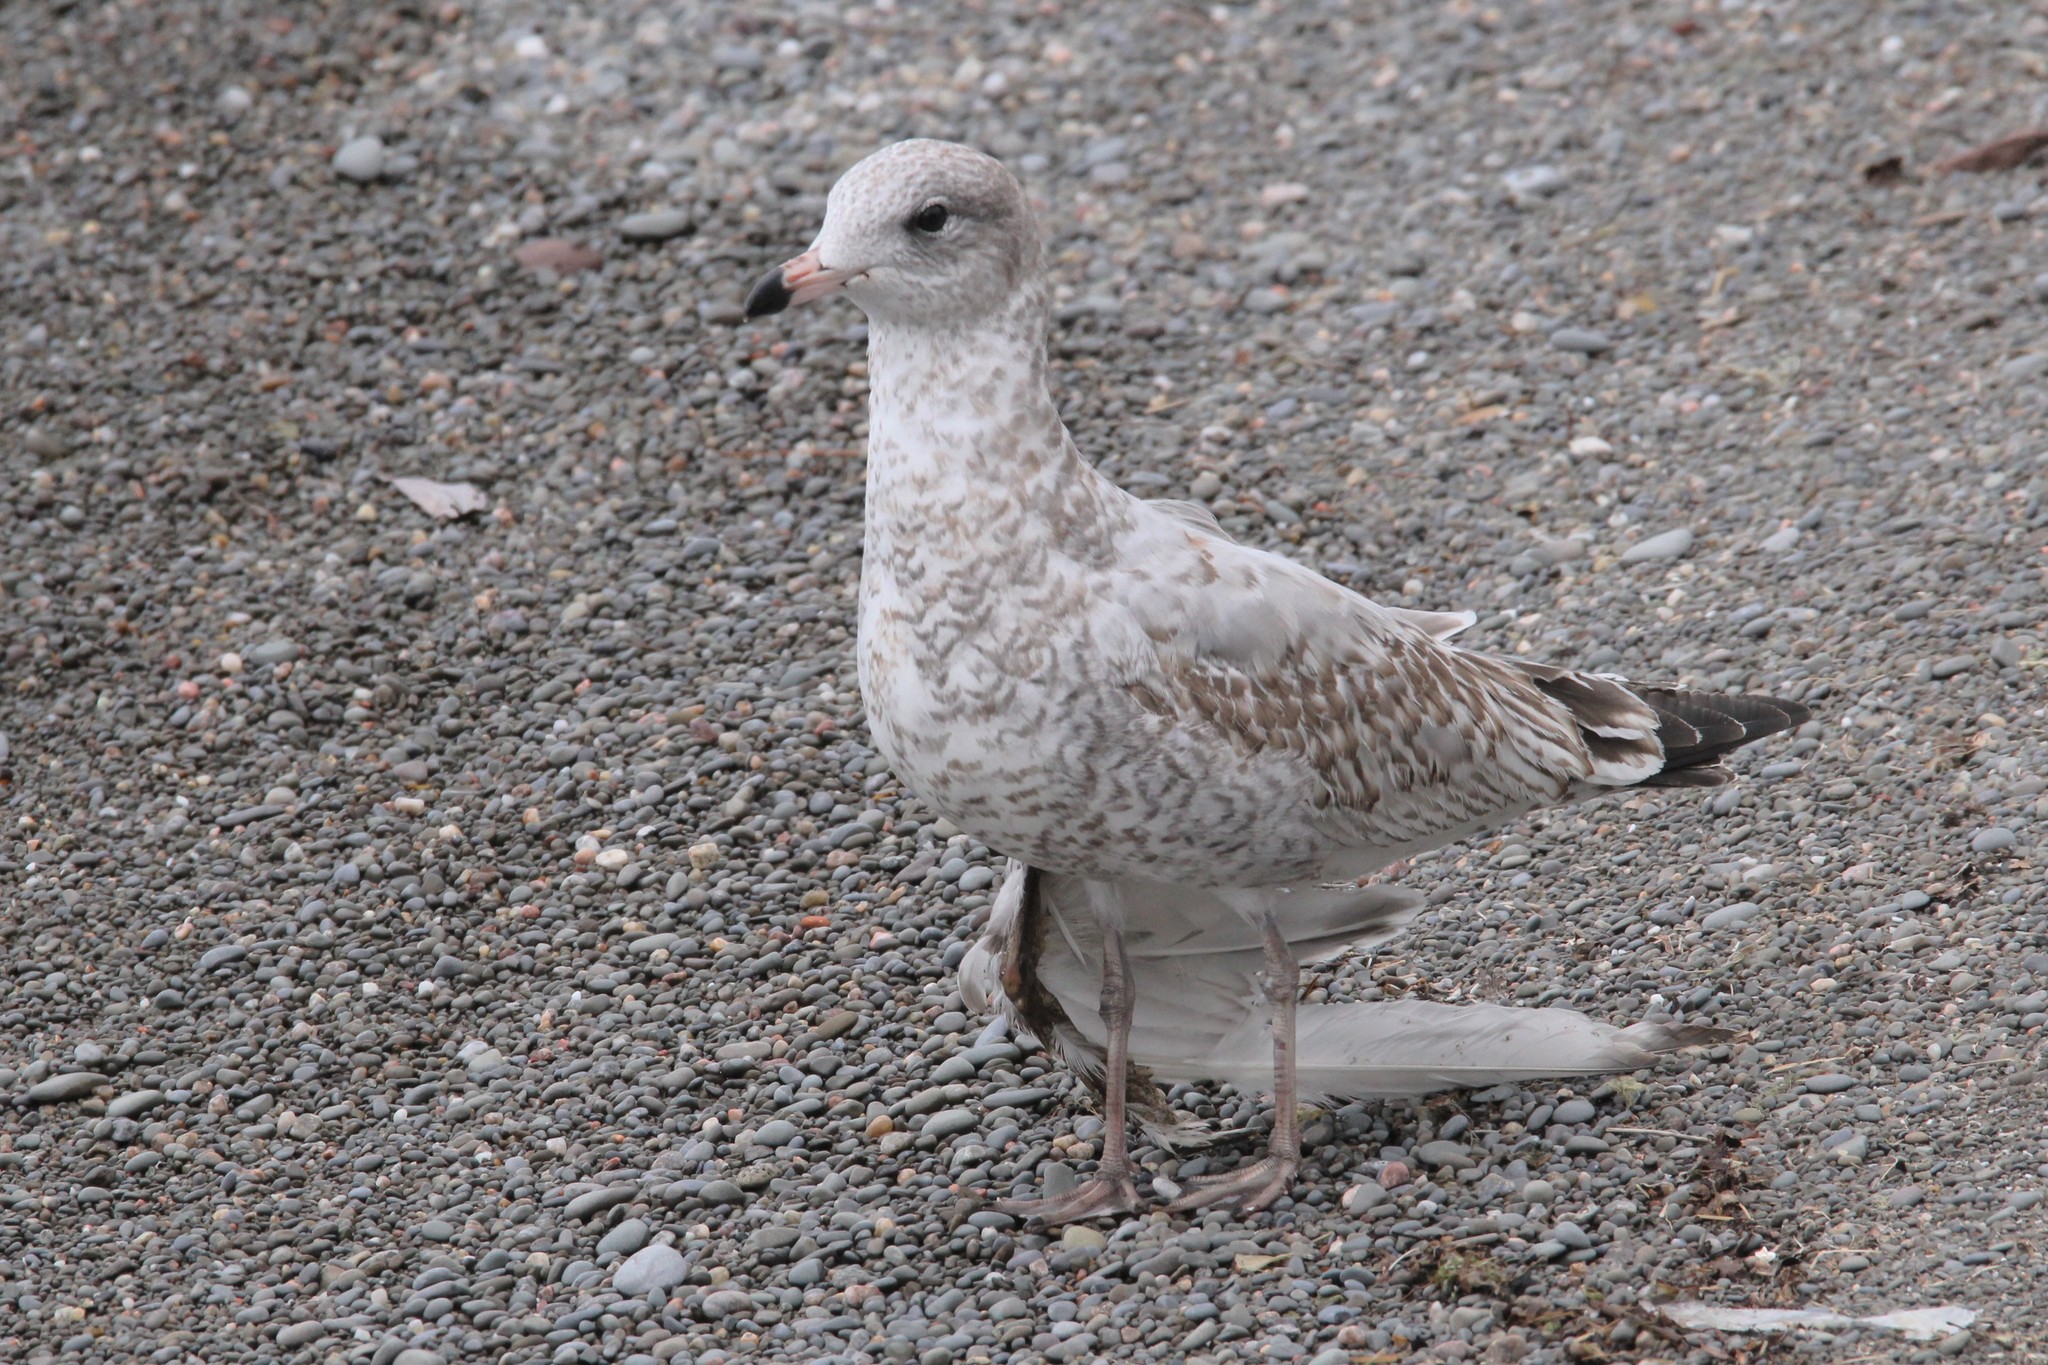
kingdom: Animalia
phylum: Chordata
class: Aves
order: Charadriiformes
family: Laridae
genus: Larus
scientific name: Larus delawarensis
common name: Ring-billed gull
